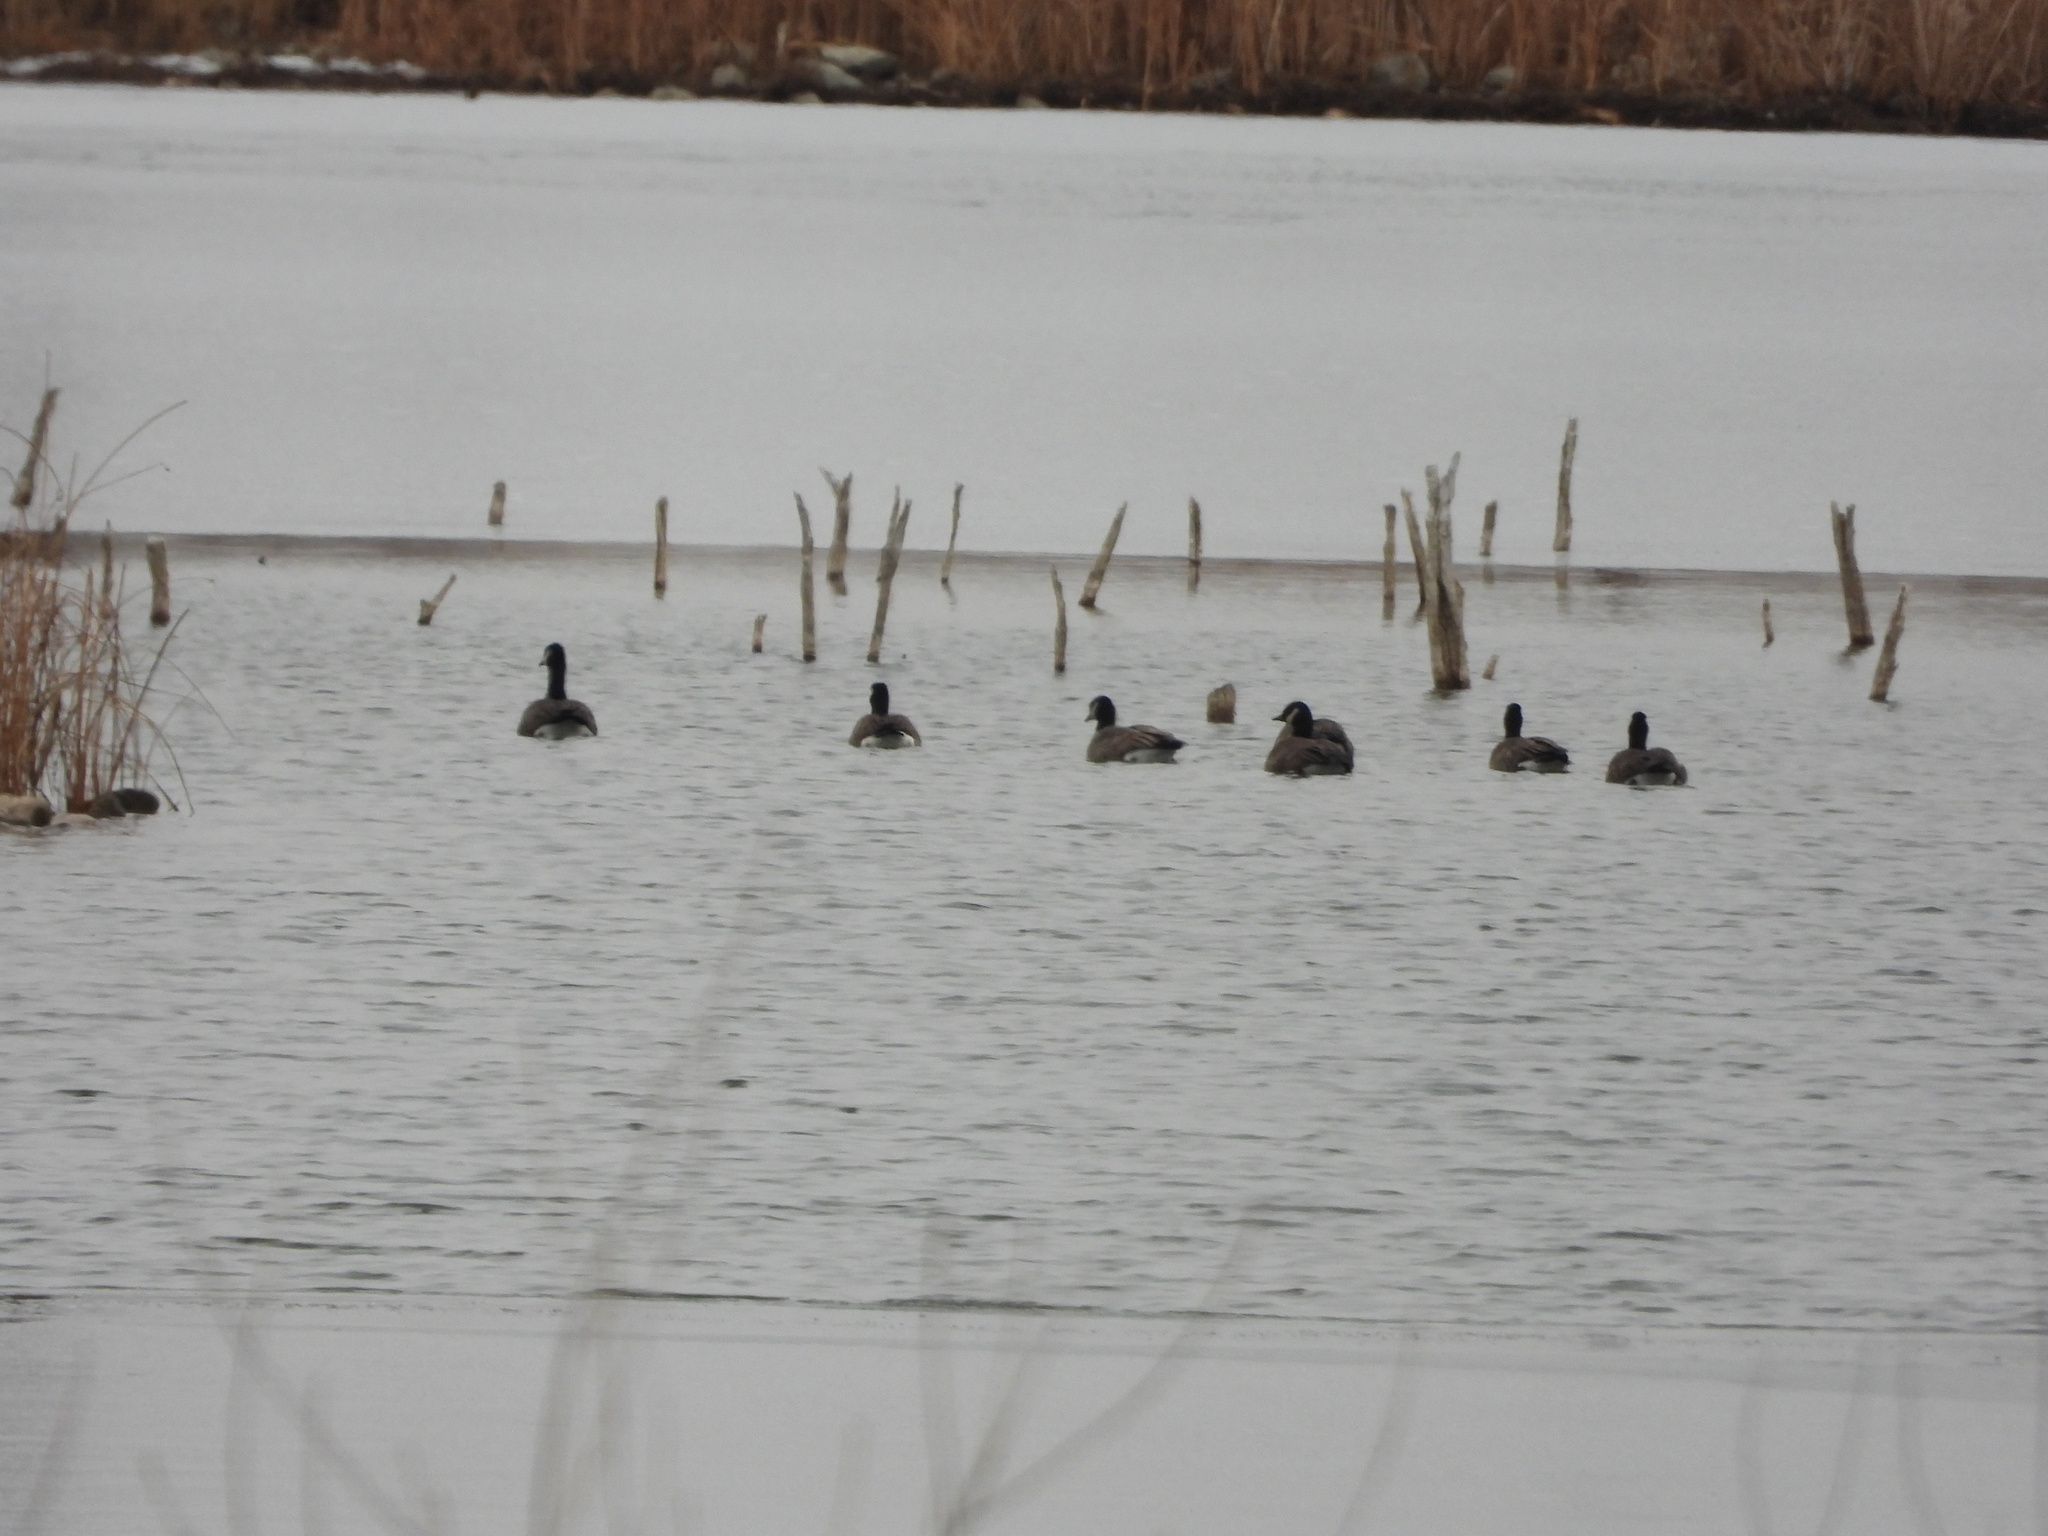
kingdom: Animalia
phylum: Chordata
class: Aves
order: Anseriformes
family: Anatidae
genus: Branta
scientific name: Branta hutchinsii
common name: Cackling goose
